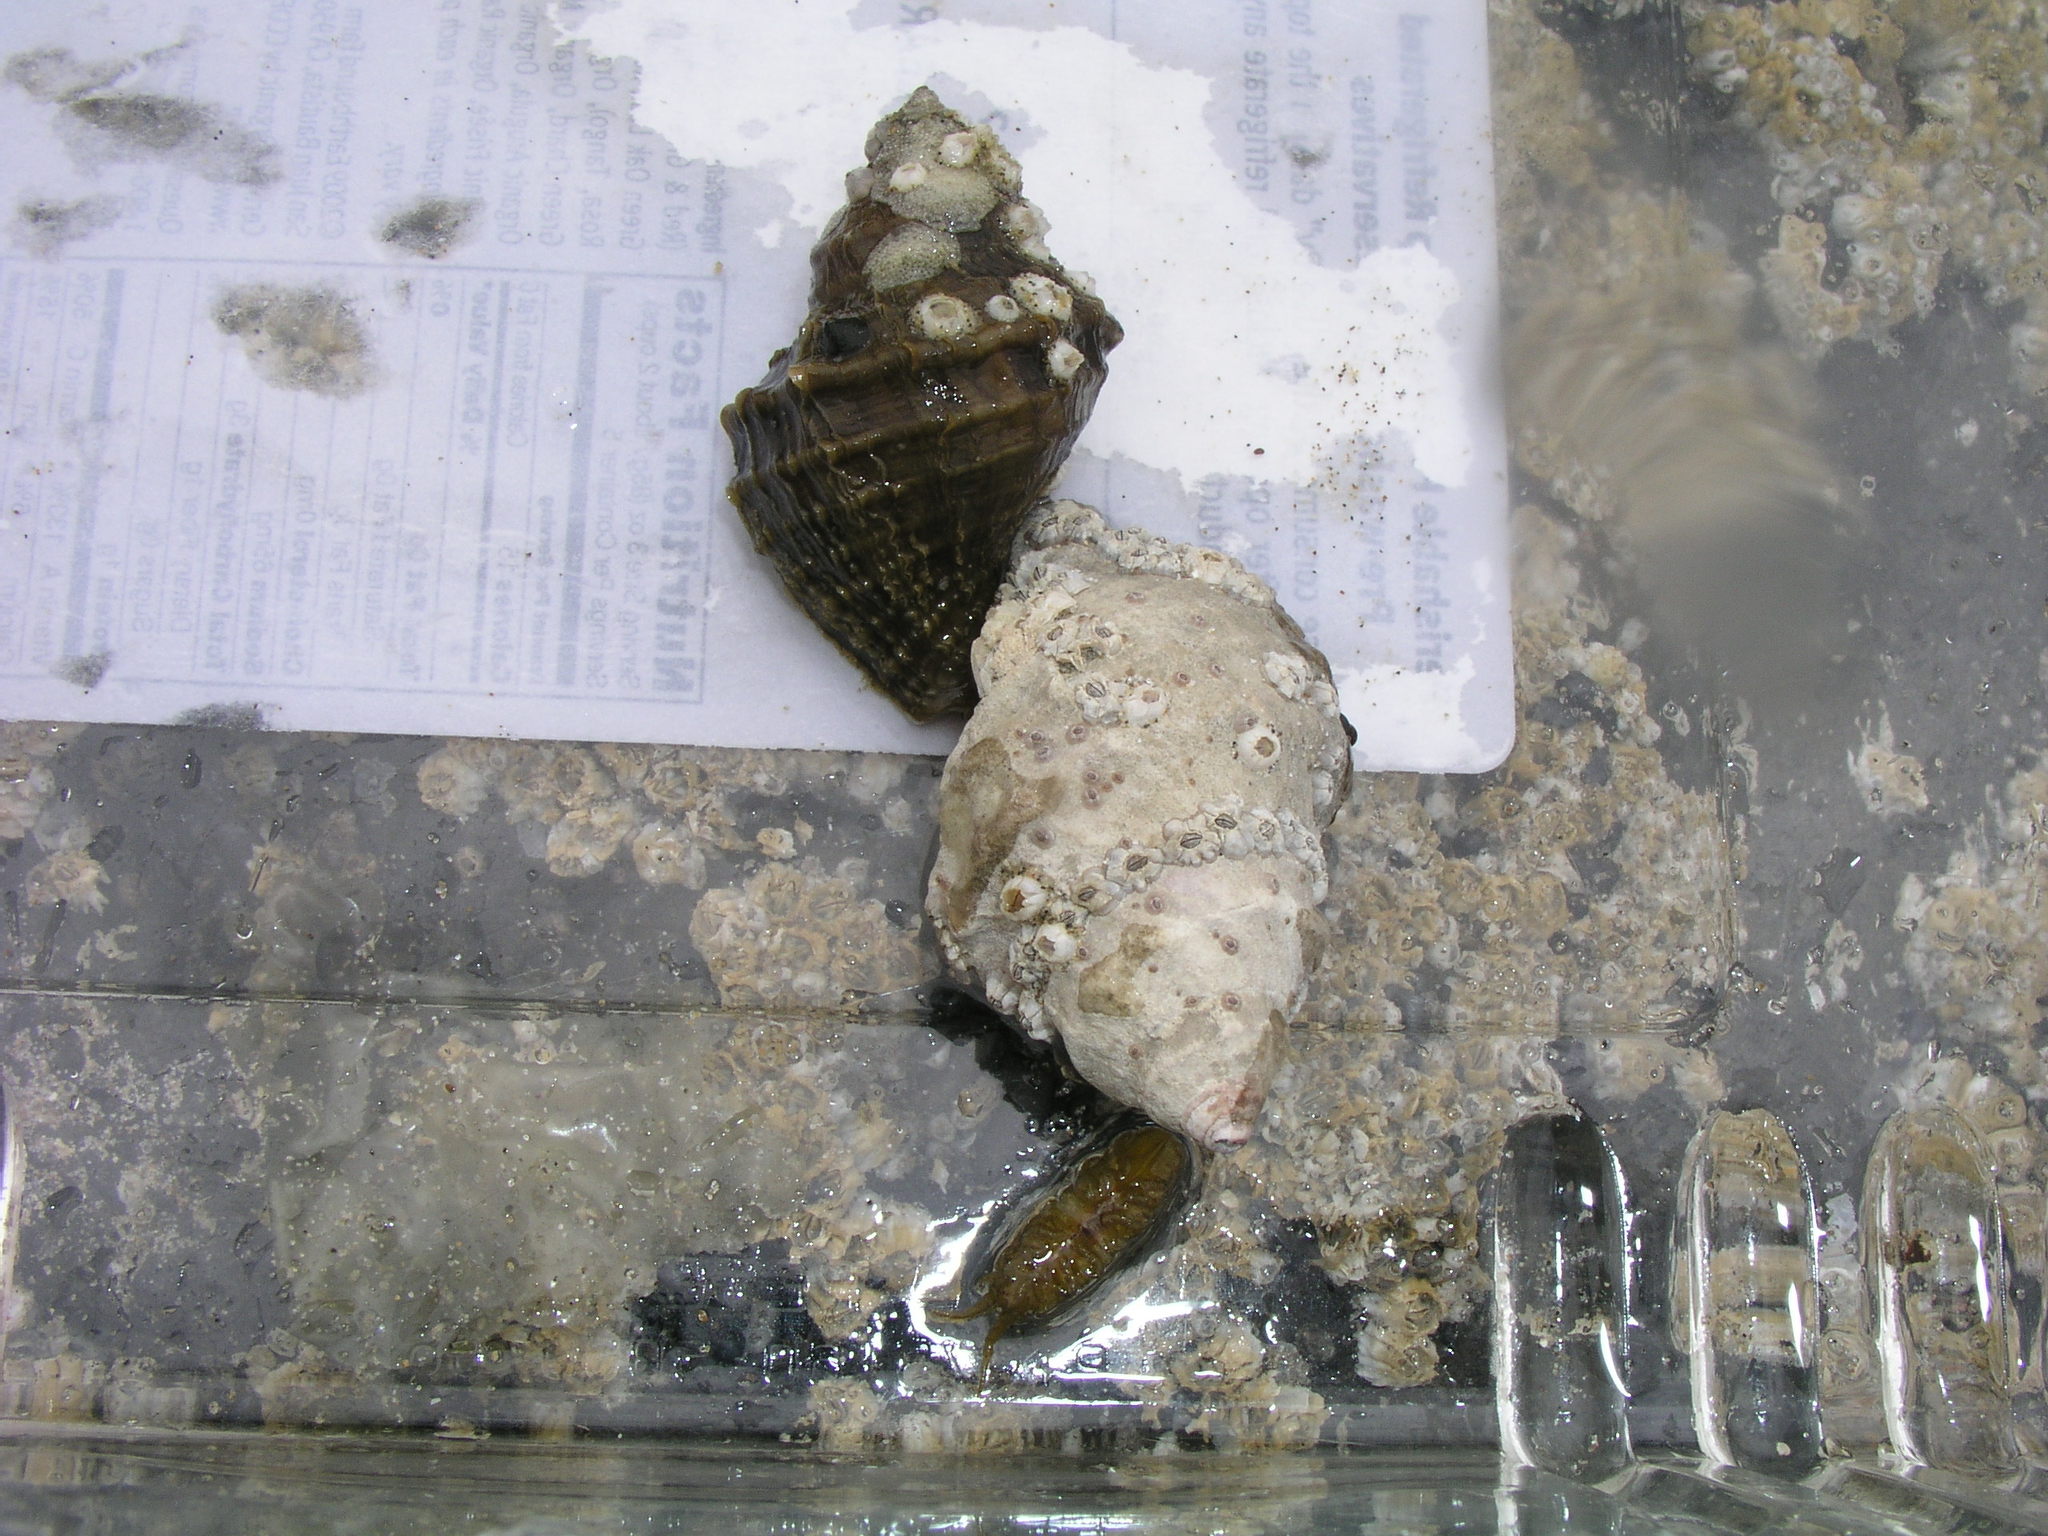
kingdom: Animalia
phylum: Mollusca
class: Gastropoda
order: Neogastropoda
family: Muricidae
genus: Nucella
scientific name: Nucella lamellosa
